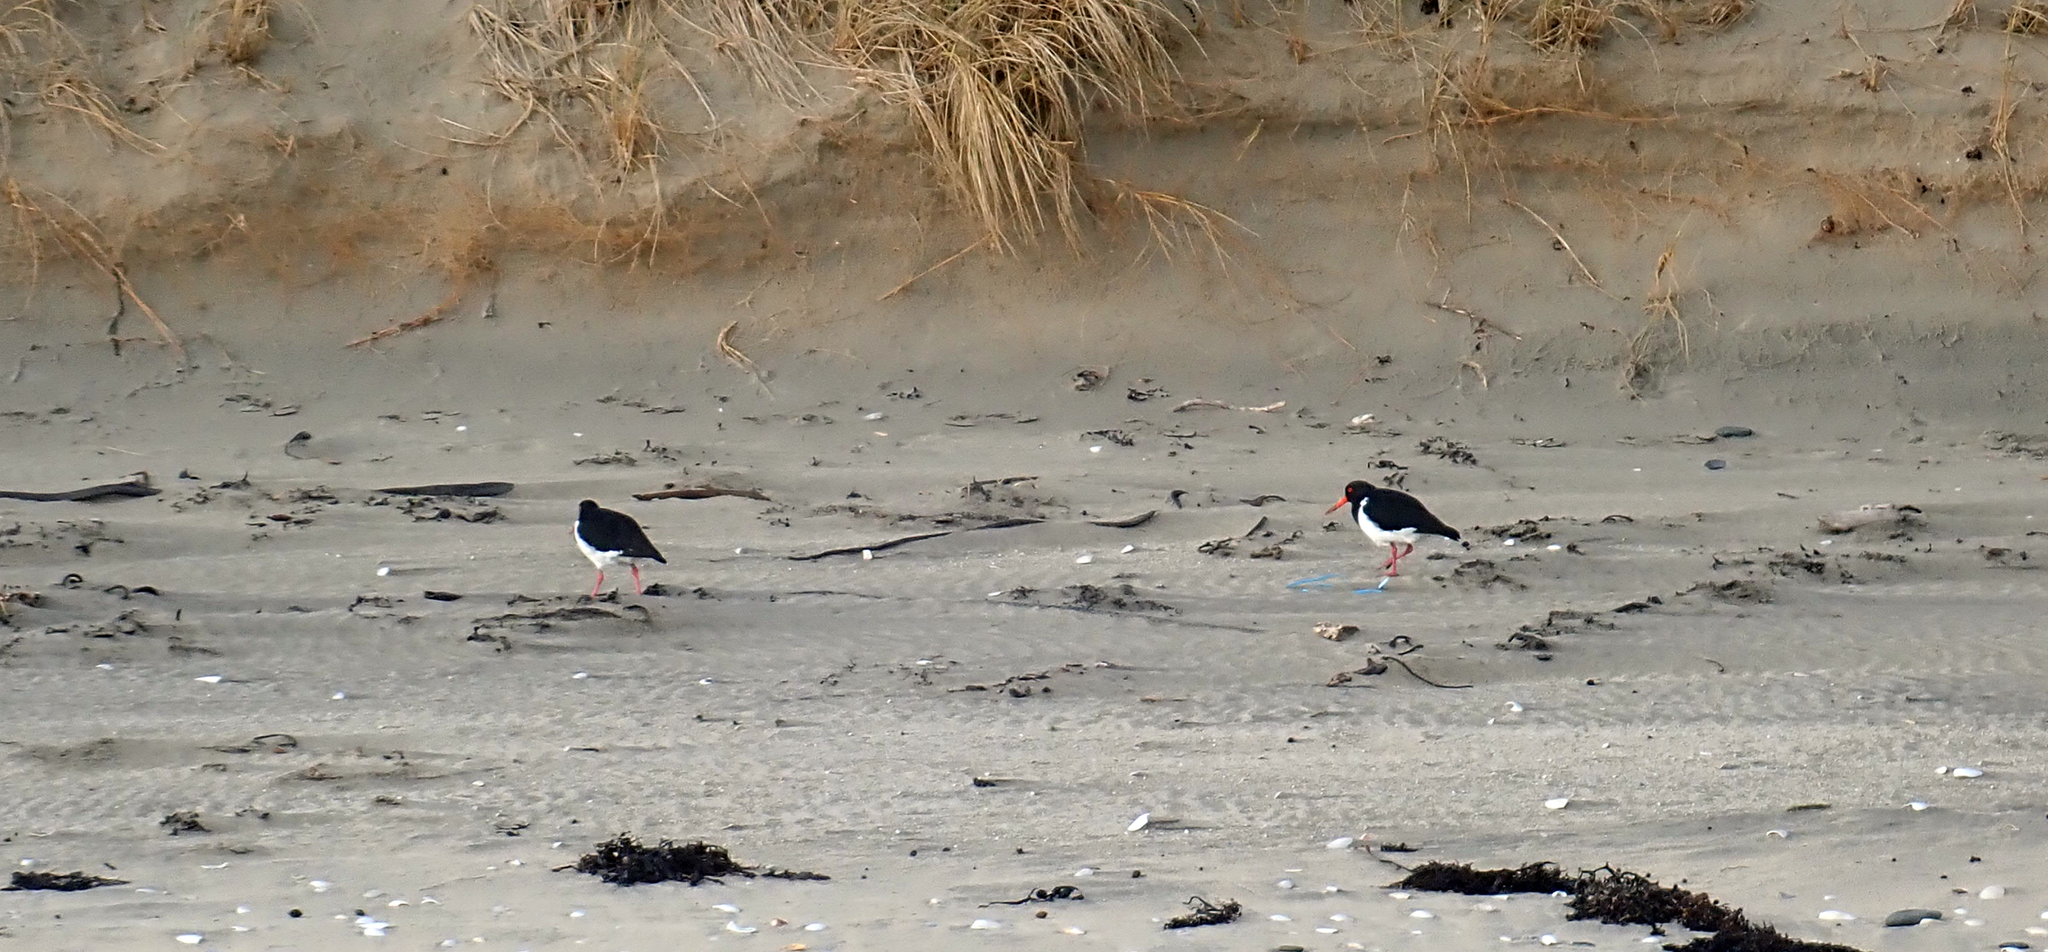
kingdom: Animalia
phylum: Chordata
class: Aves
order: Charadriiformes
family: Haematopodidae
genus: Haematopus
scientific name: Haematopus chathamensis
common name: Chatham oystercatcher
